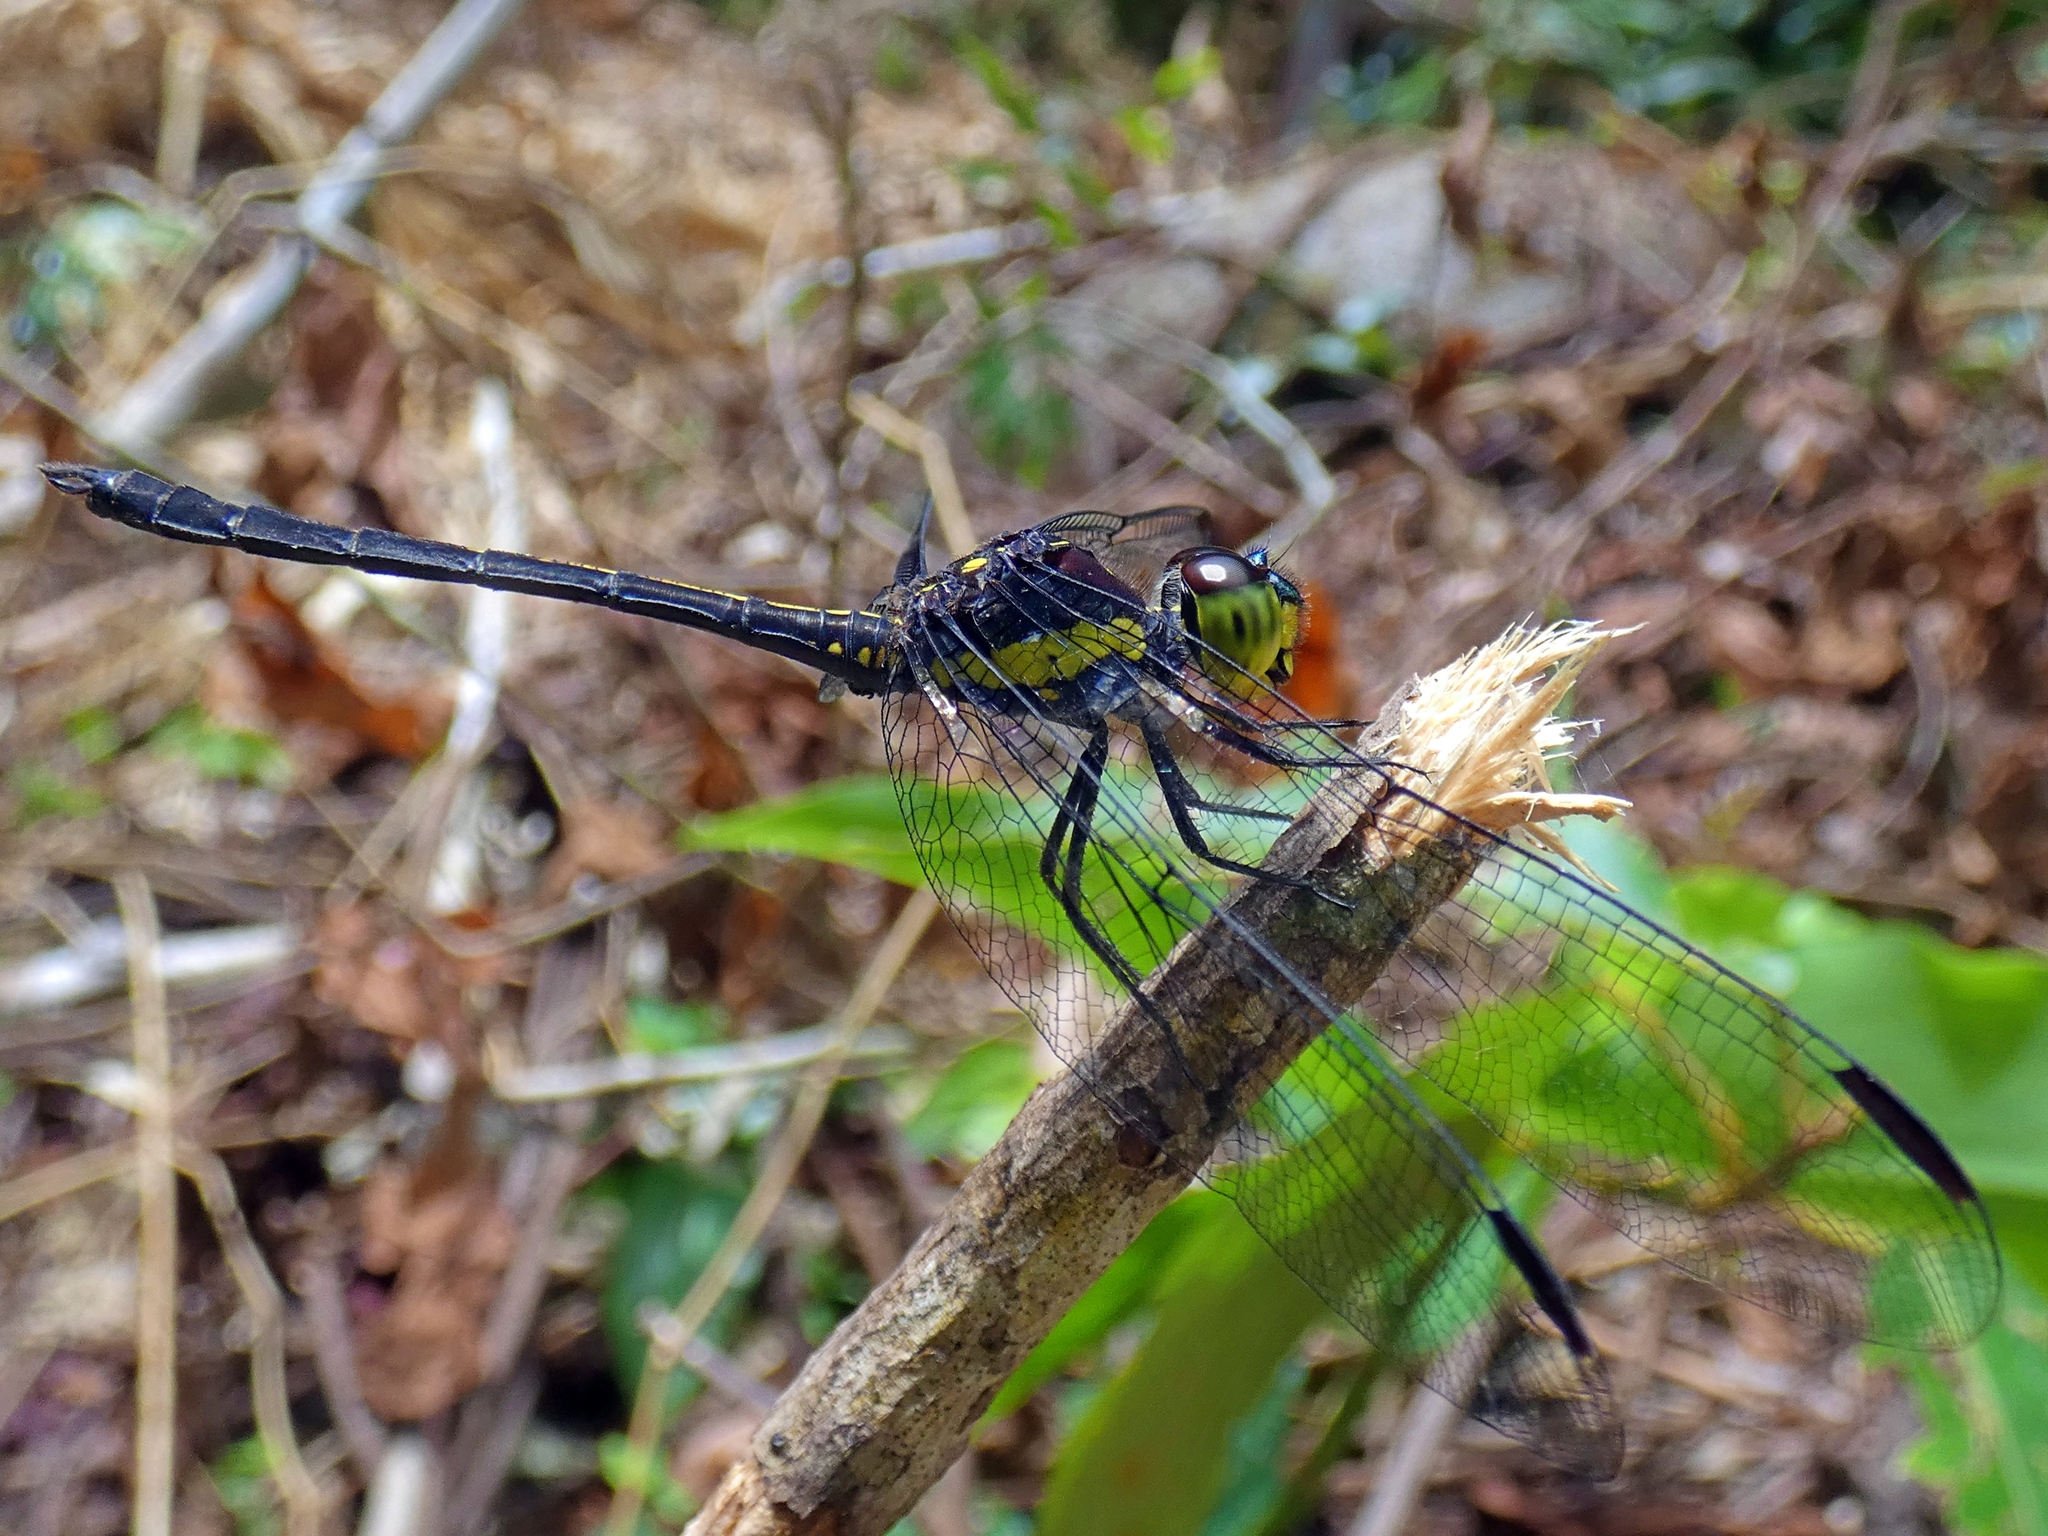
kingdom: Animalia
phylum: Arthropoda
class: Insecta
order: Odonata
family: Libellulidae
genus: Agrionoptera
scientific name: Agrionoptera longitudinalis
